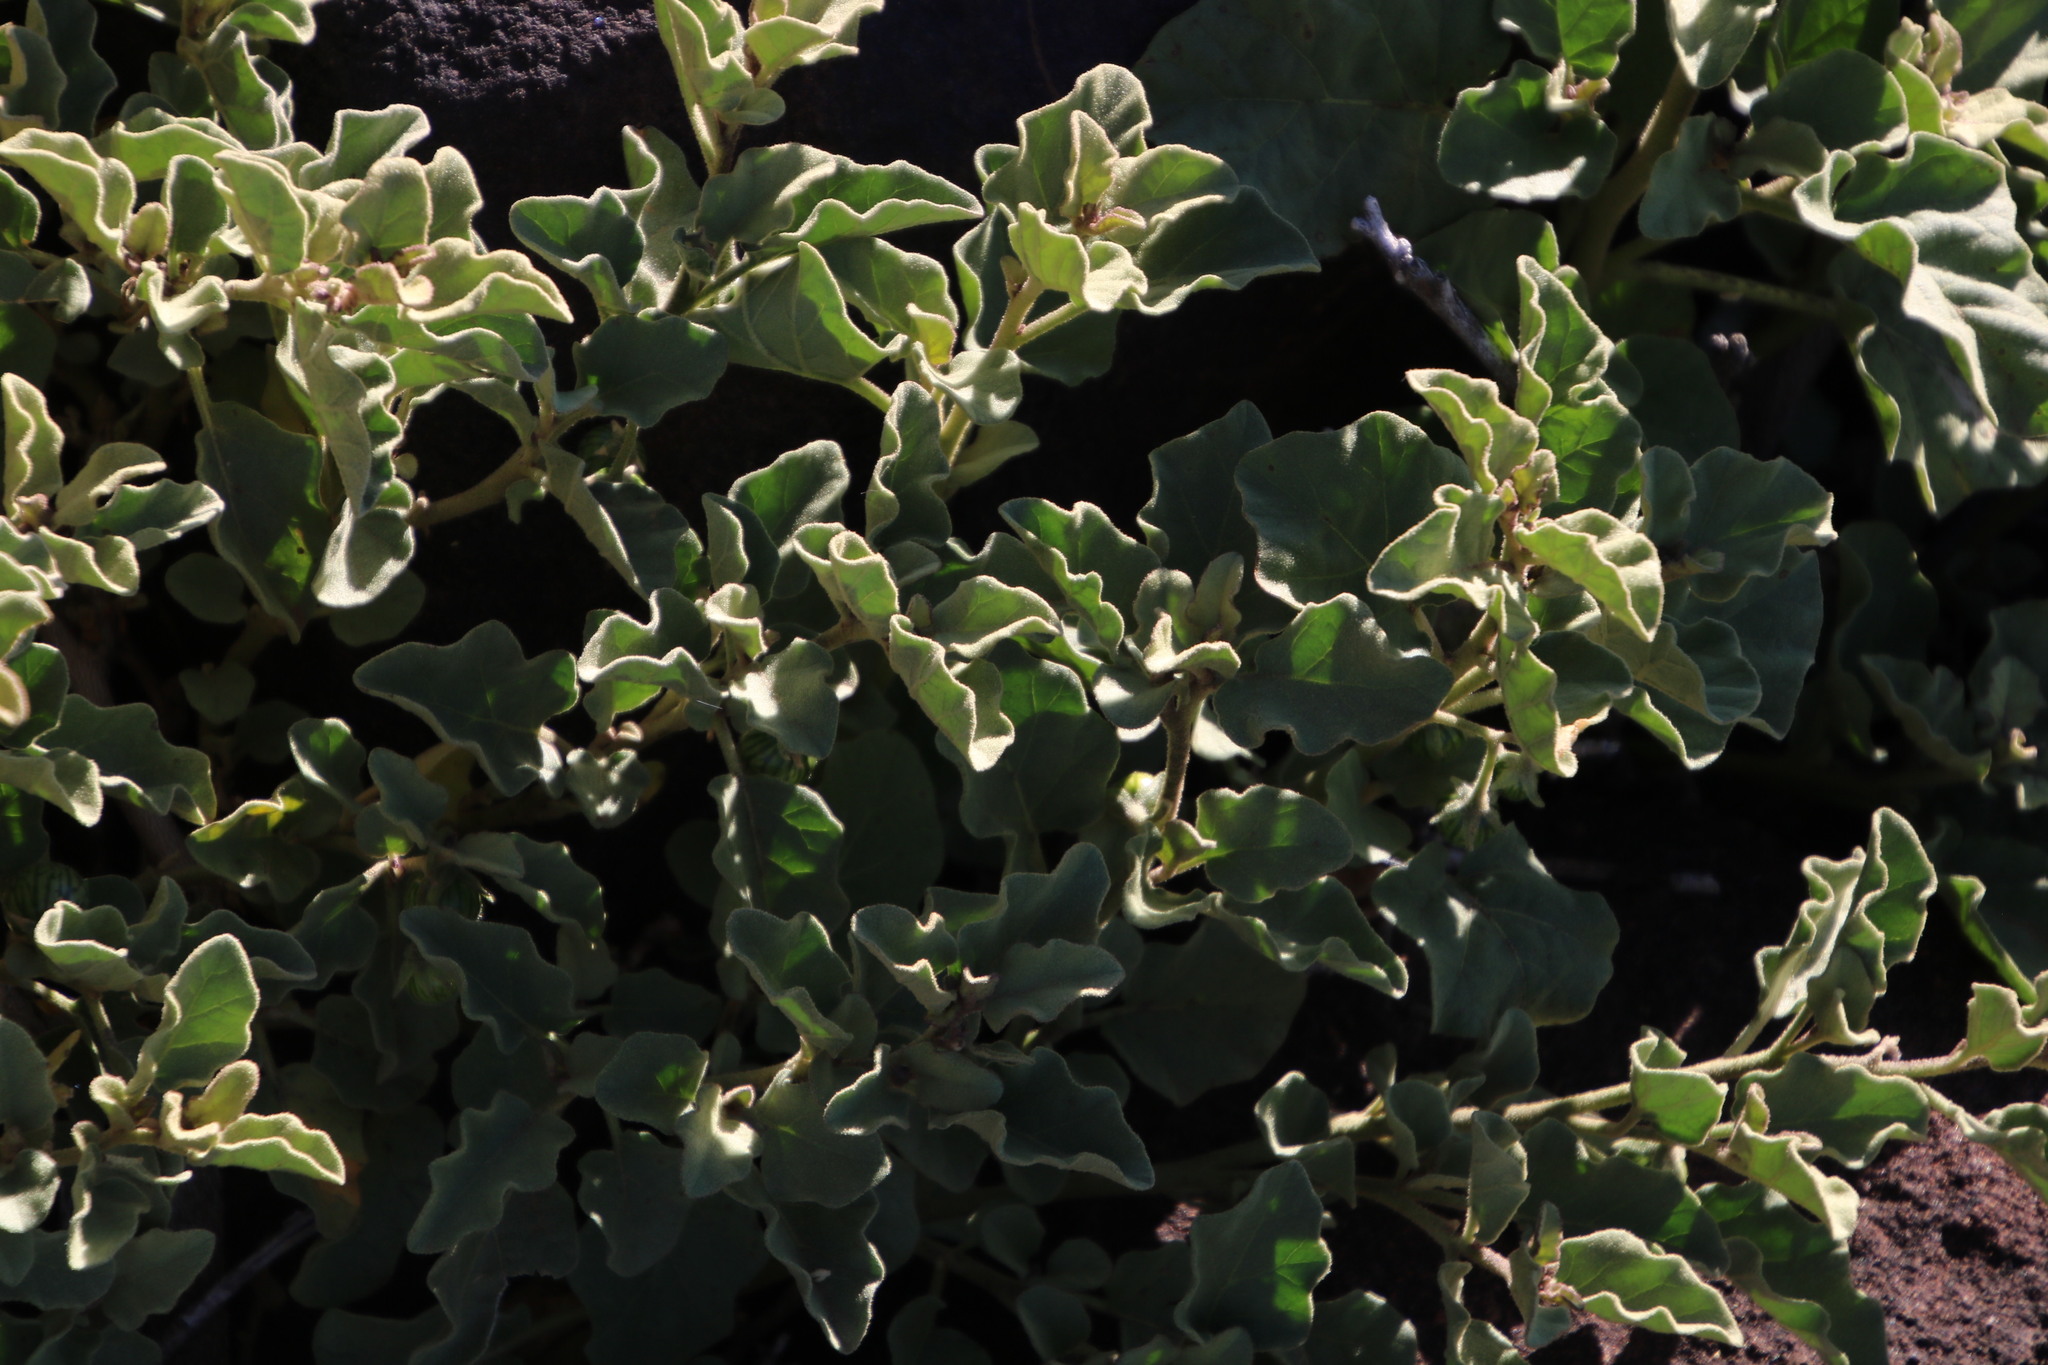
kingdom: Plantae
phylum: Tracheophyta
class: Magnoliopsida
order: Solanales
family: Solanaceae
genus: Solanum
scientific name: Solanum tomentosum
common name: Wild aubergine
